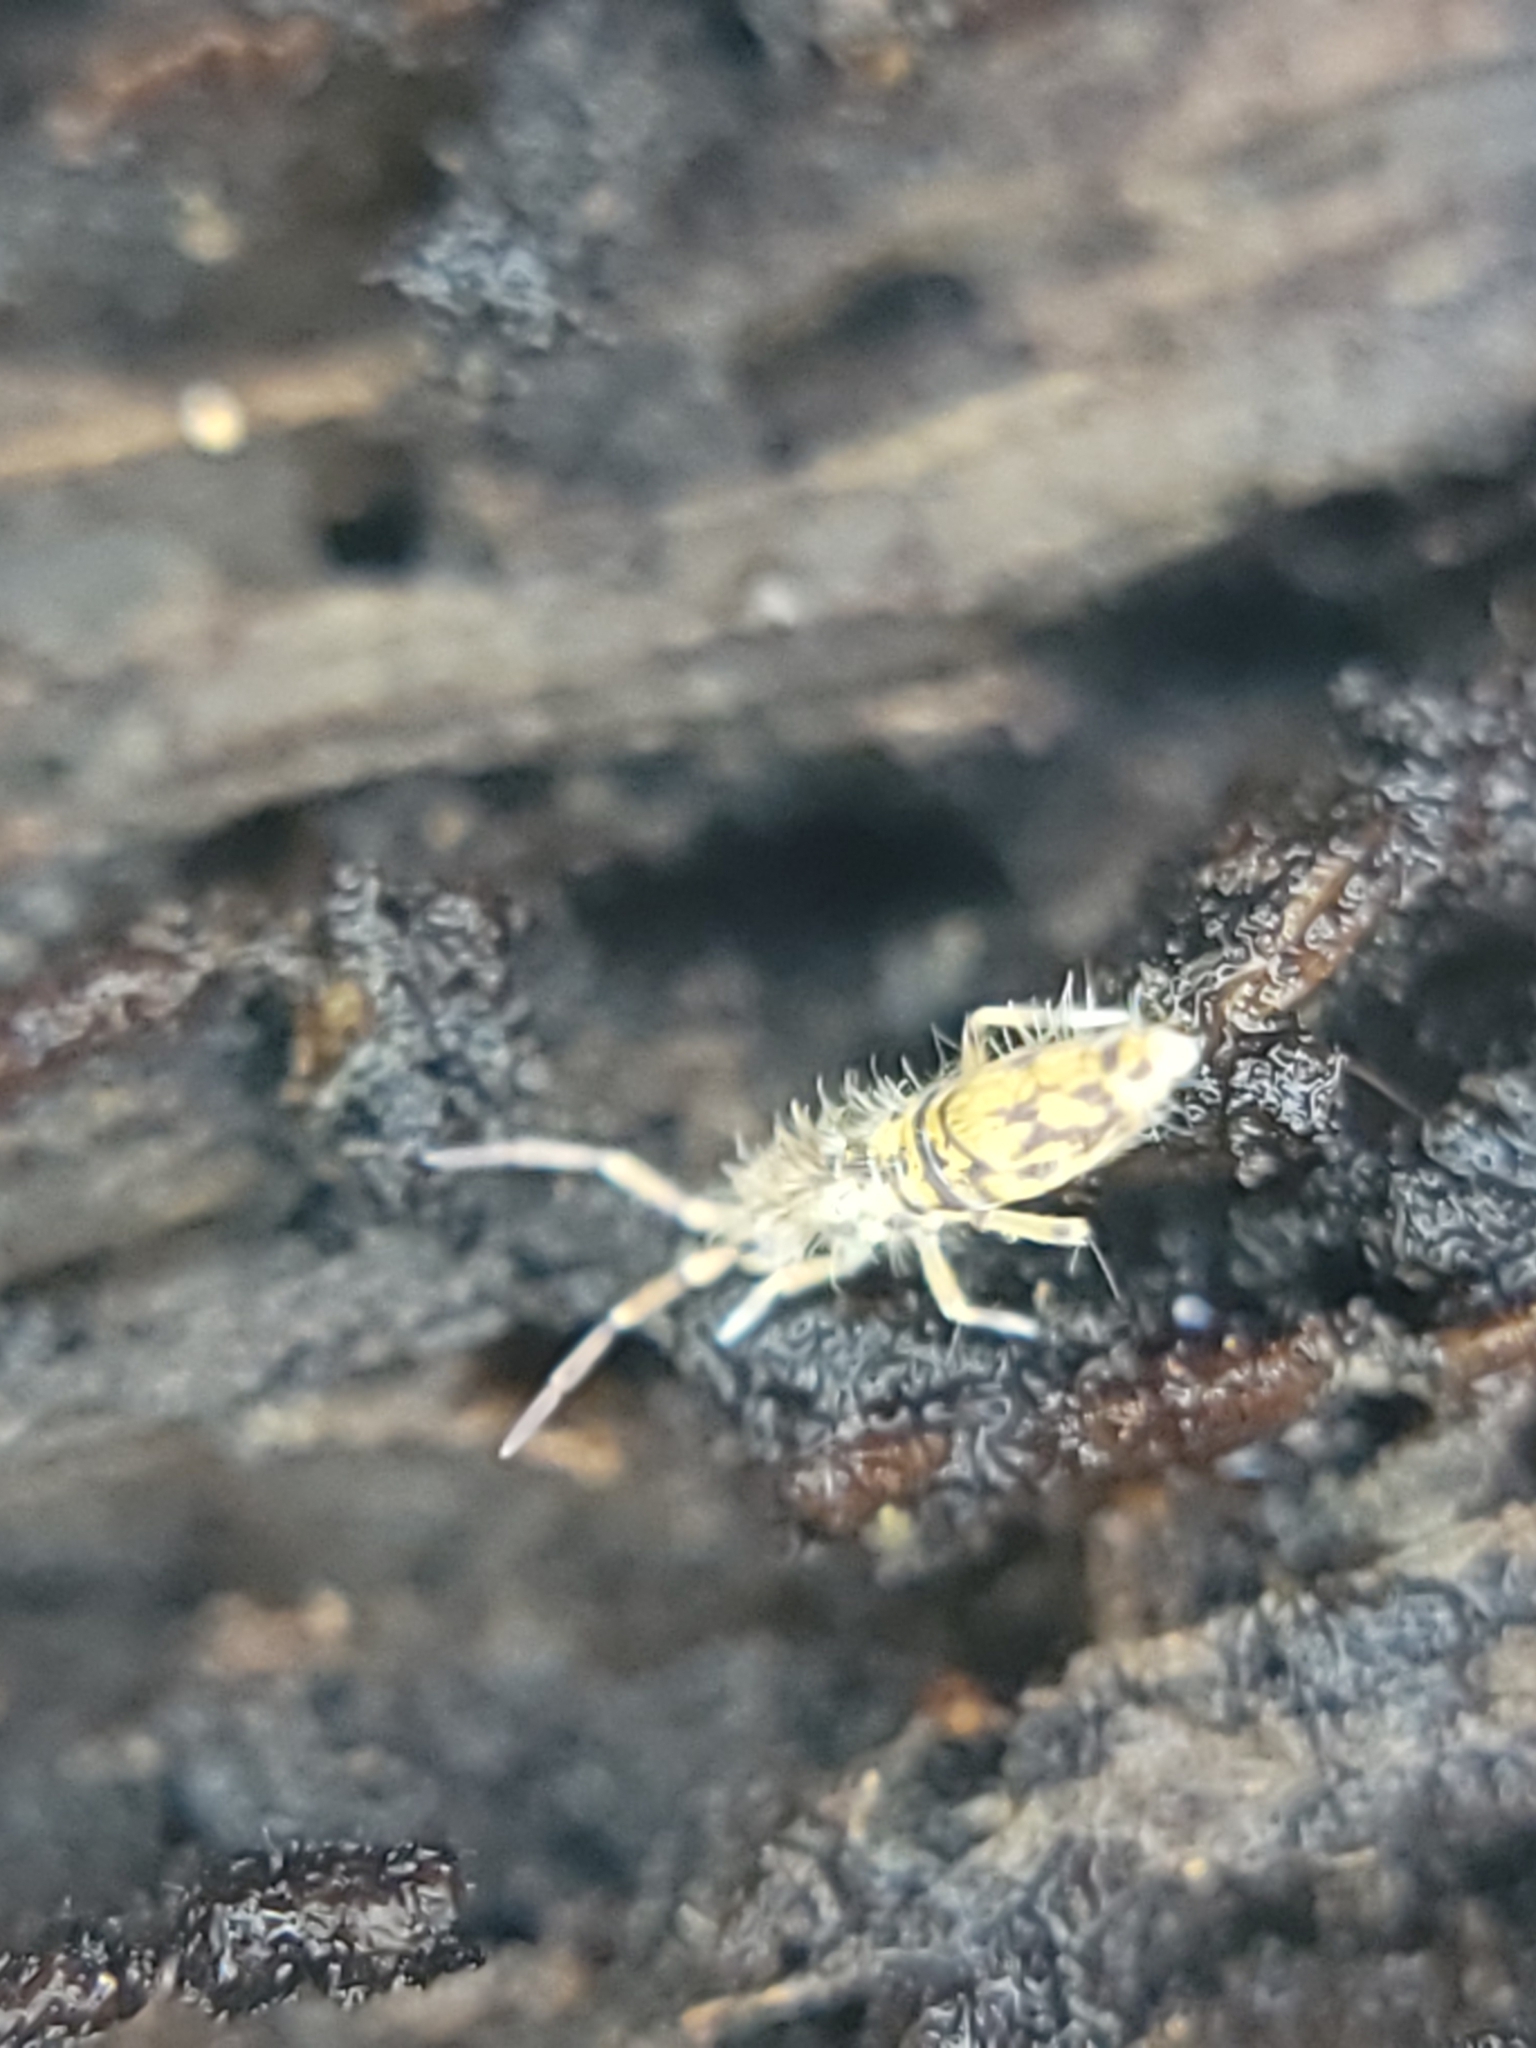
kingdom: Animalia
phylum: Arthropoda
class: Collembola
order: Entomobryomorpha
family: Entomobryidae
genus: Entomobrya
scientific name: Entomobrya katzi
